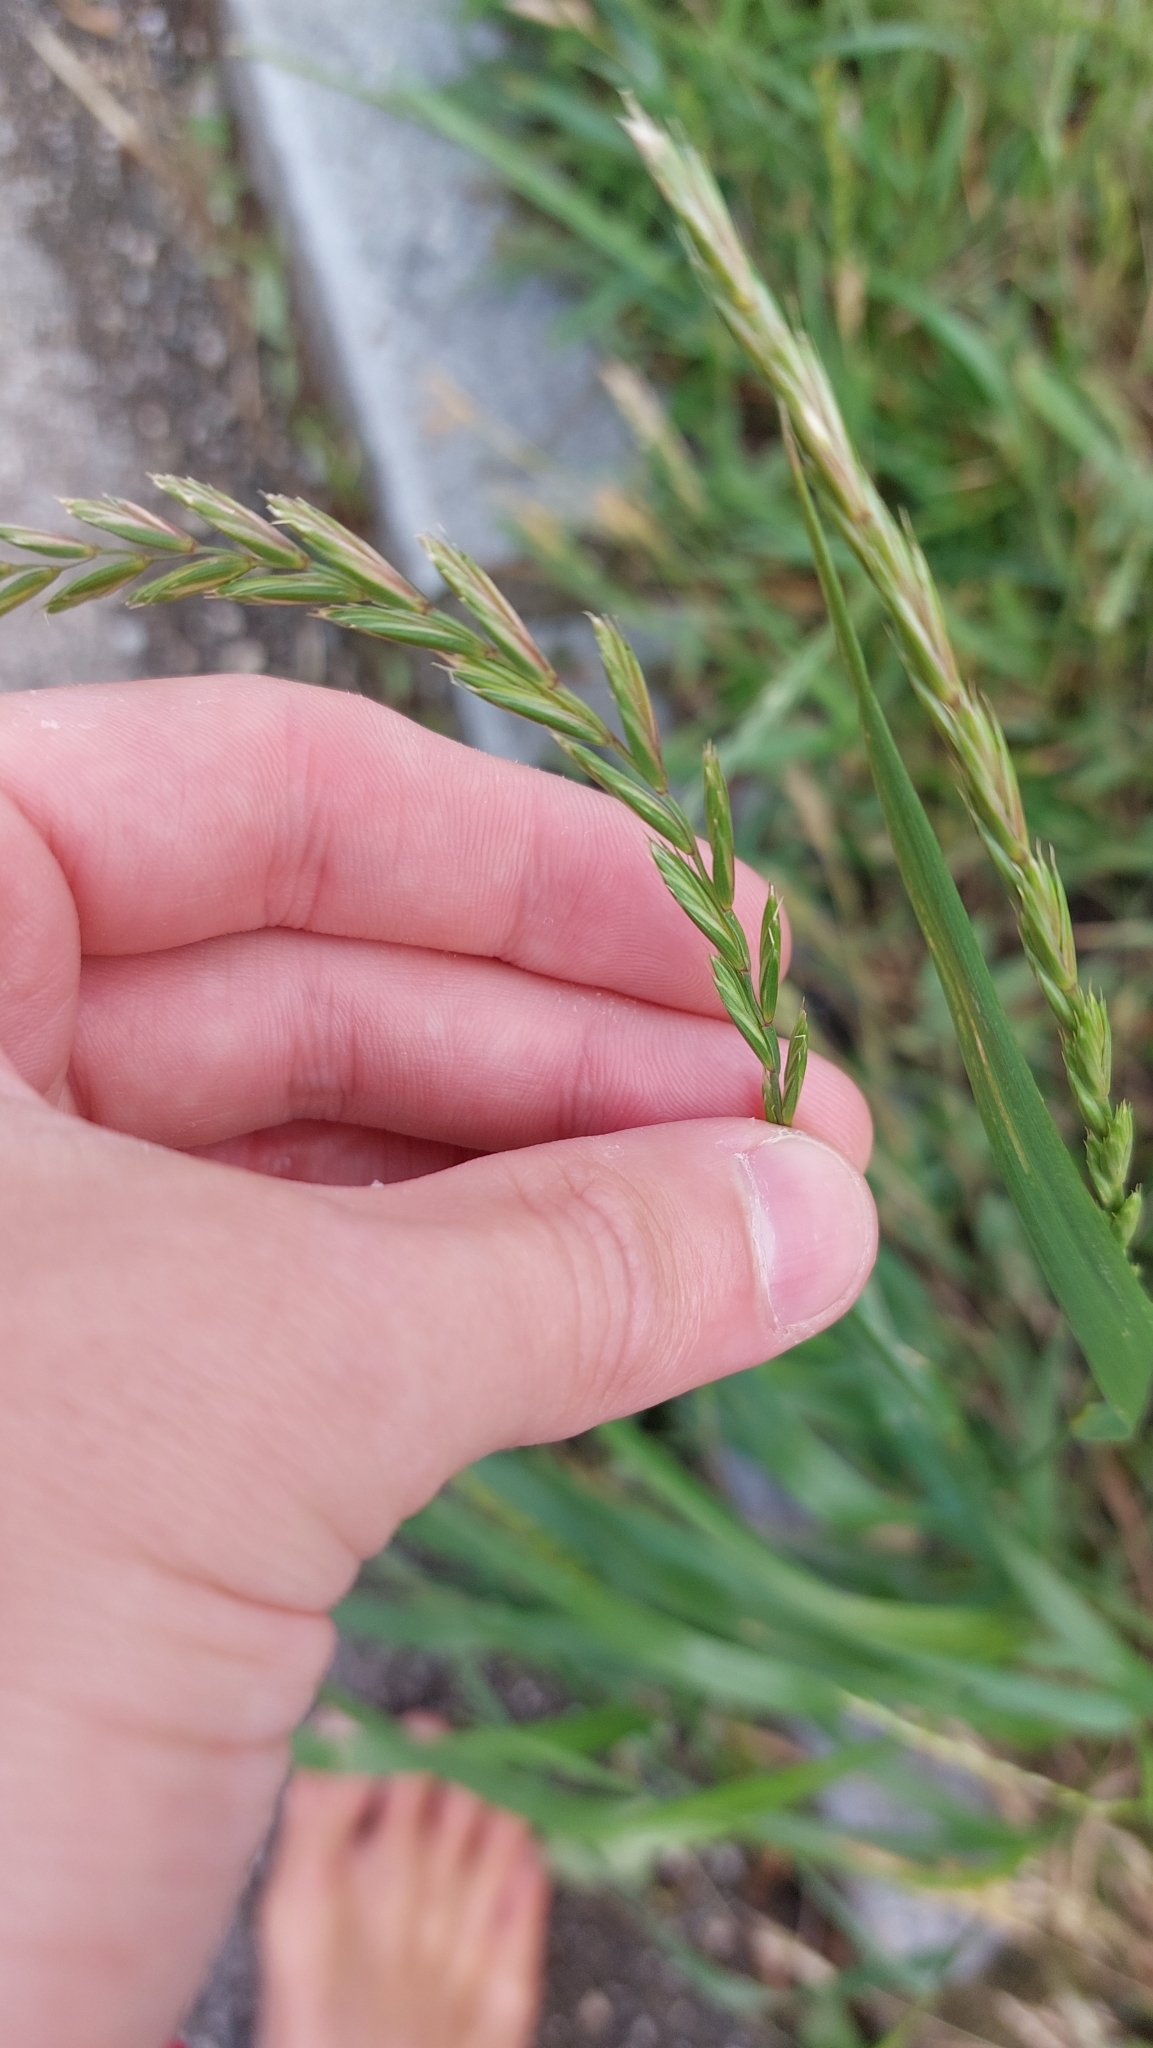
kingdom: Plantae
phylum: Tracheophyta
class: Liliopsida
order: Poales
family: Poaceae
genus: Elymus
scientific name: Elymus repens
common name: Quackgrass
